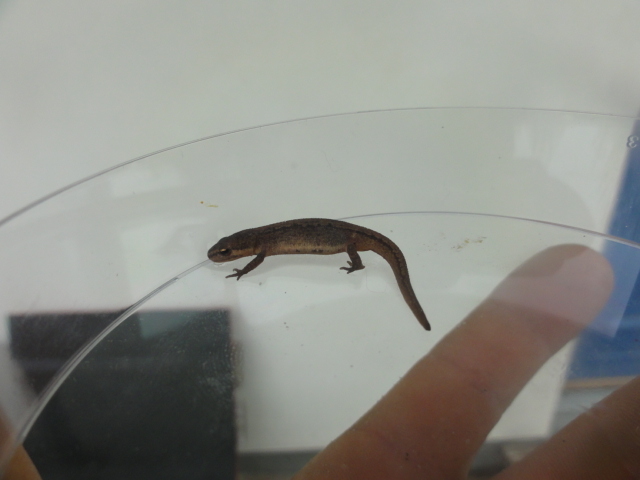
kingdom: Animalia
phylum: Chordata
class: Amphibia
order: Caudata
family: Salamandridae
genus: Lissotriton
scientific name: Lissotriton vulgaris
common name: Smooth newt
